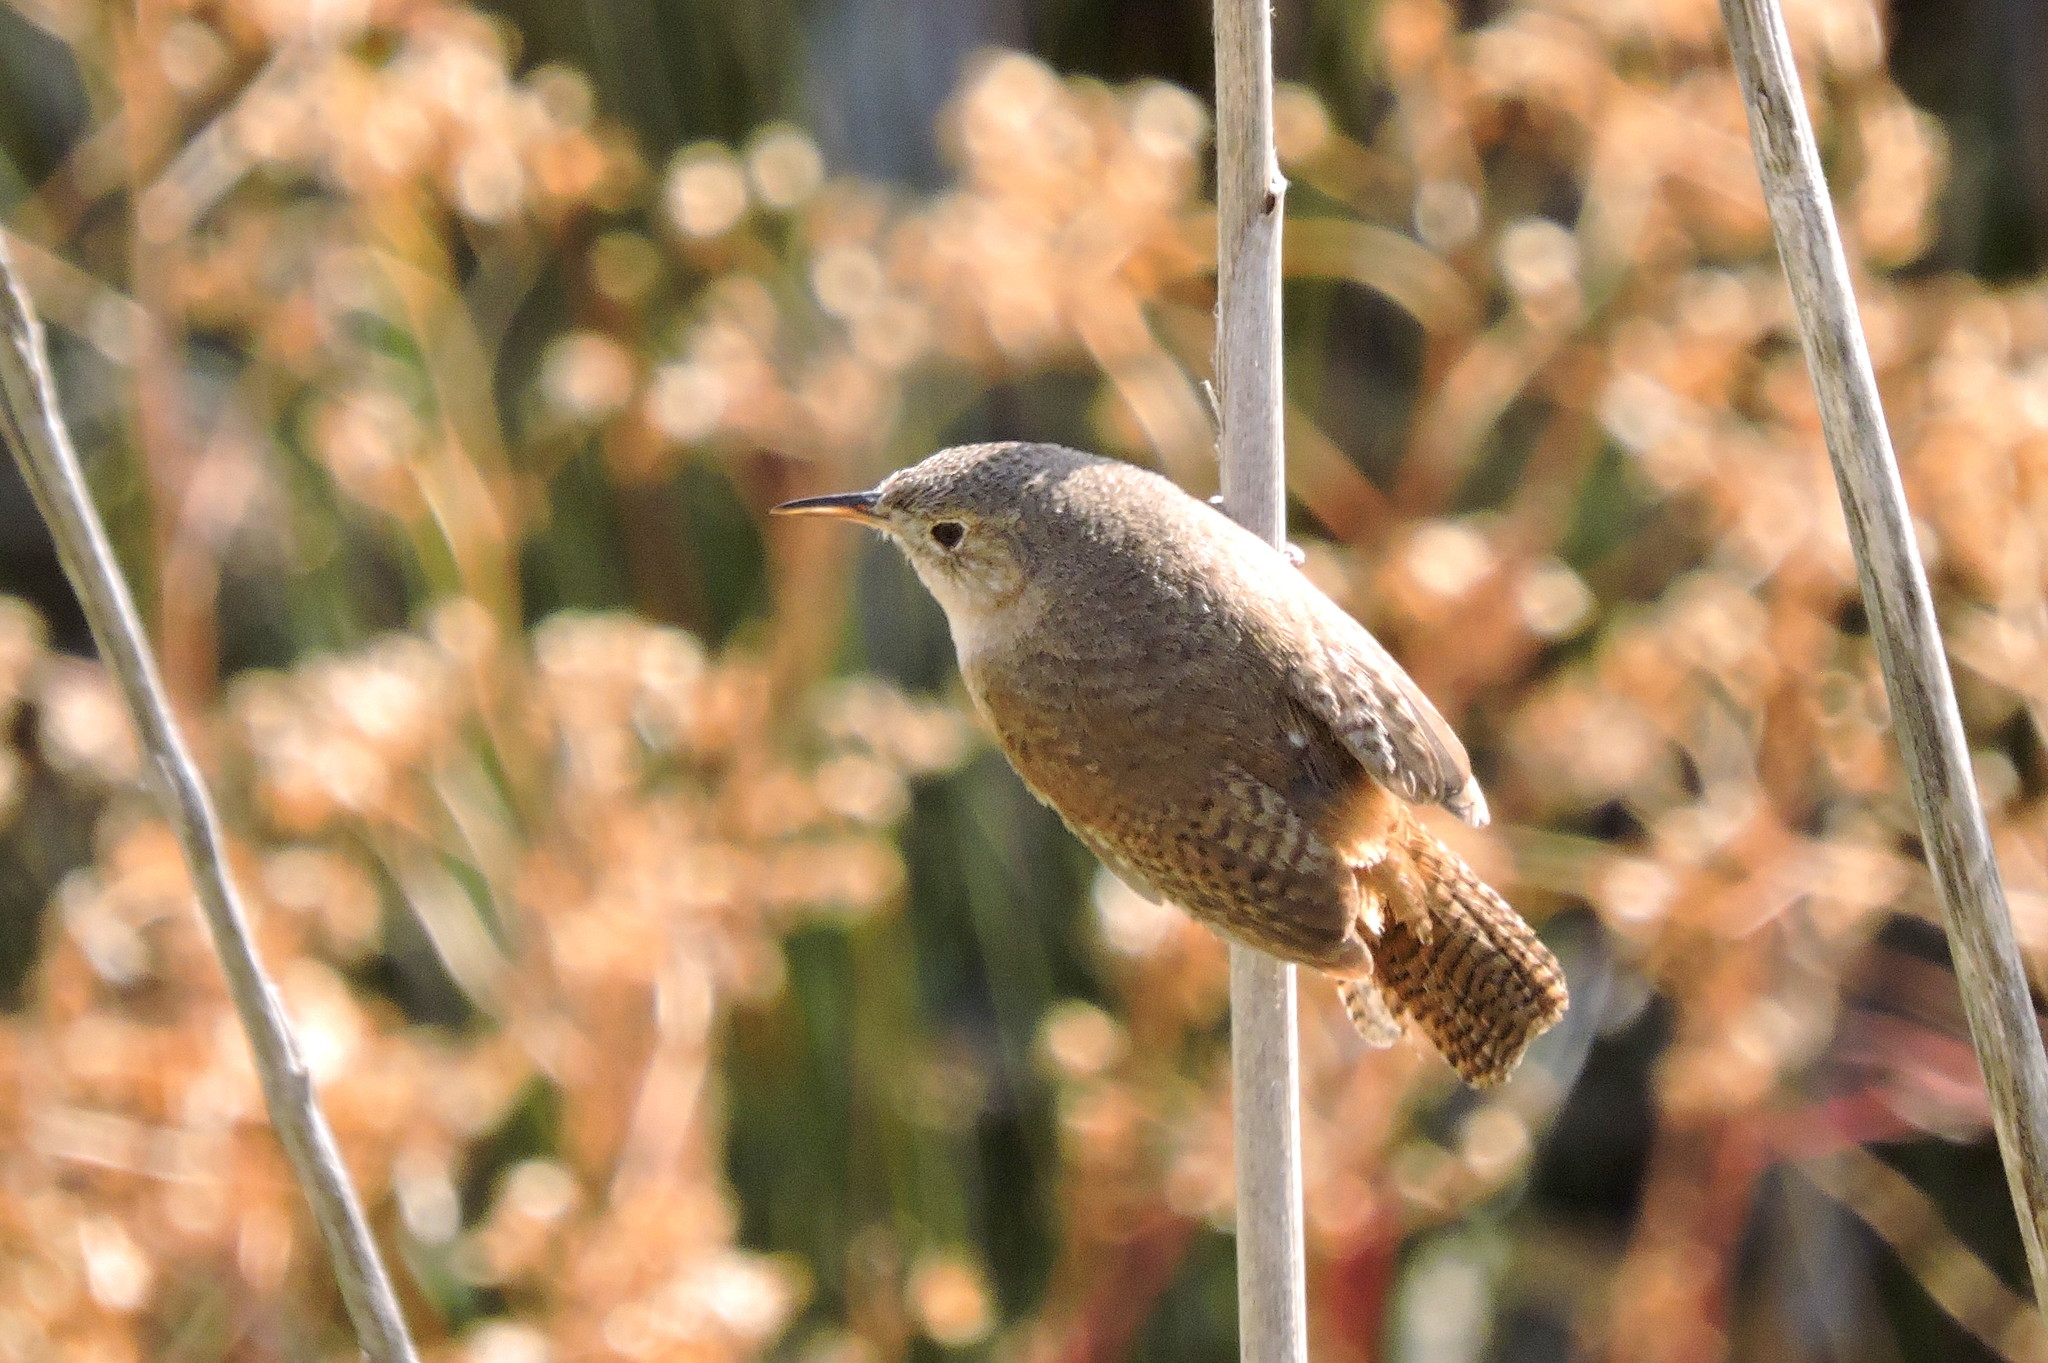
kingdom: Animalia
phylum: Chordata
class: Aves
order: Passeriformes
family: Troglodytidae
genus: Troglodytes
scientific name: Troglodytes aedon
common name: House wren
